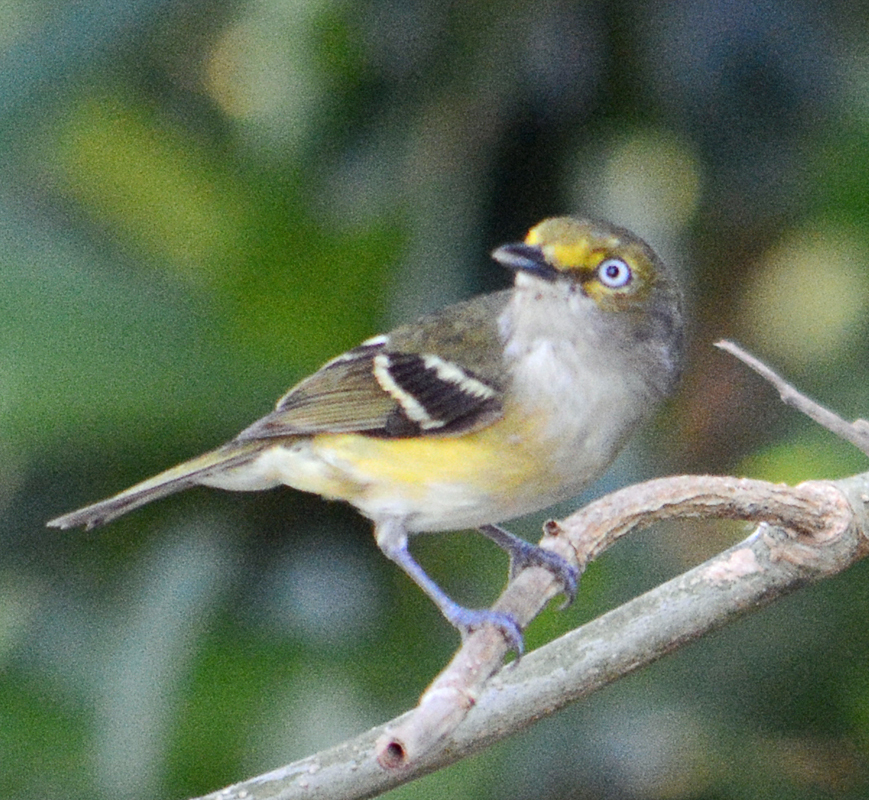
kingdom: Animalia
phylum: Chordata
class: Aves
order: Passeriformes
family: Vireonidae
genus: Vireo
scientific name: Vireo griseus
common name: White-eyed vireo
